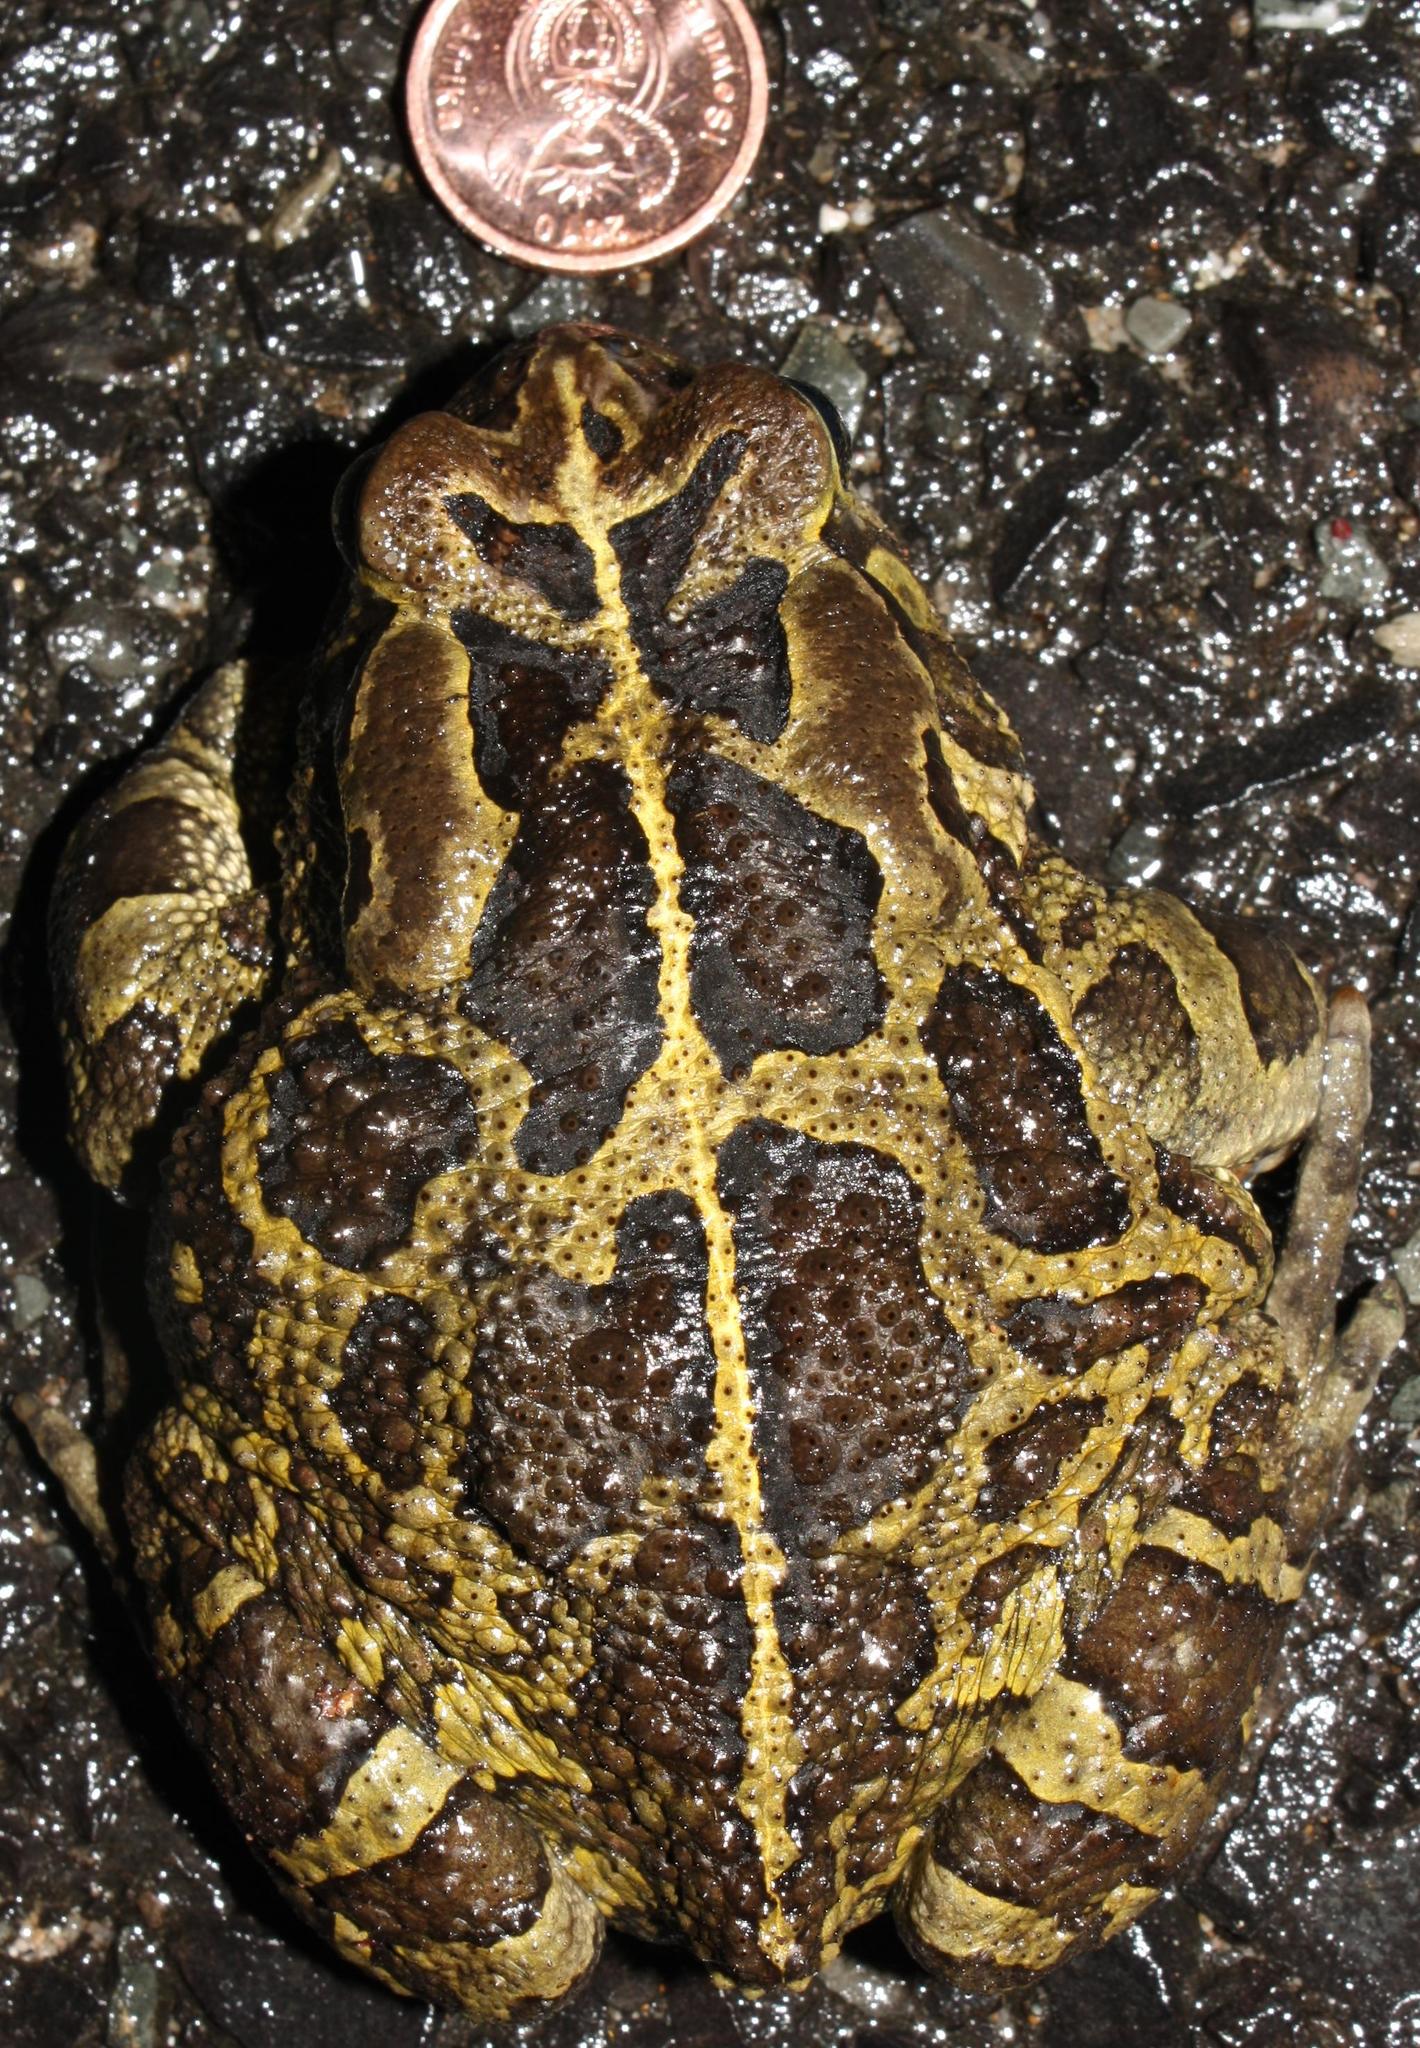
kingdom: Animalia
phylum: Chordata
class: Amphibia
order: Anura
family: Bufonidae
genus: Sclerophrys
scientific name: Sclerophrys pantherina
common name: Panther toad
